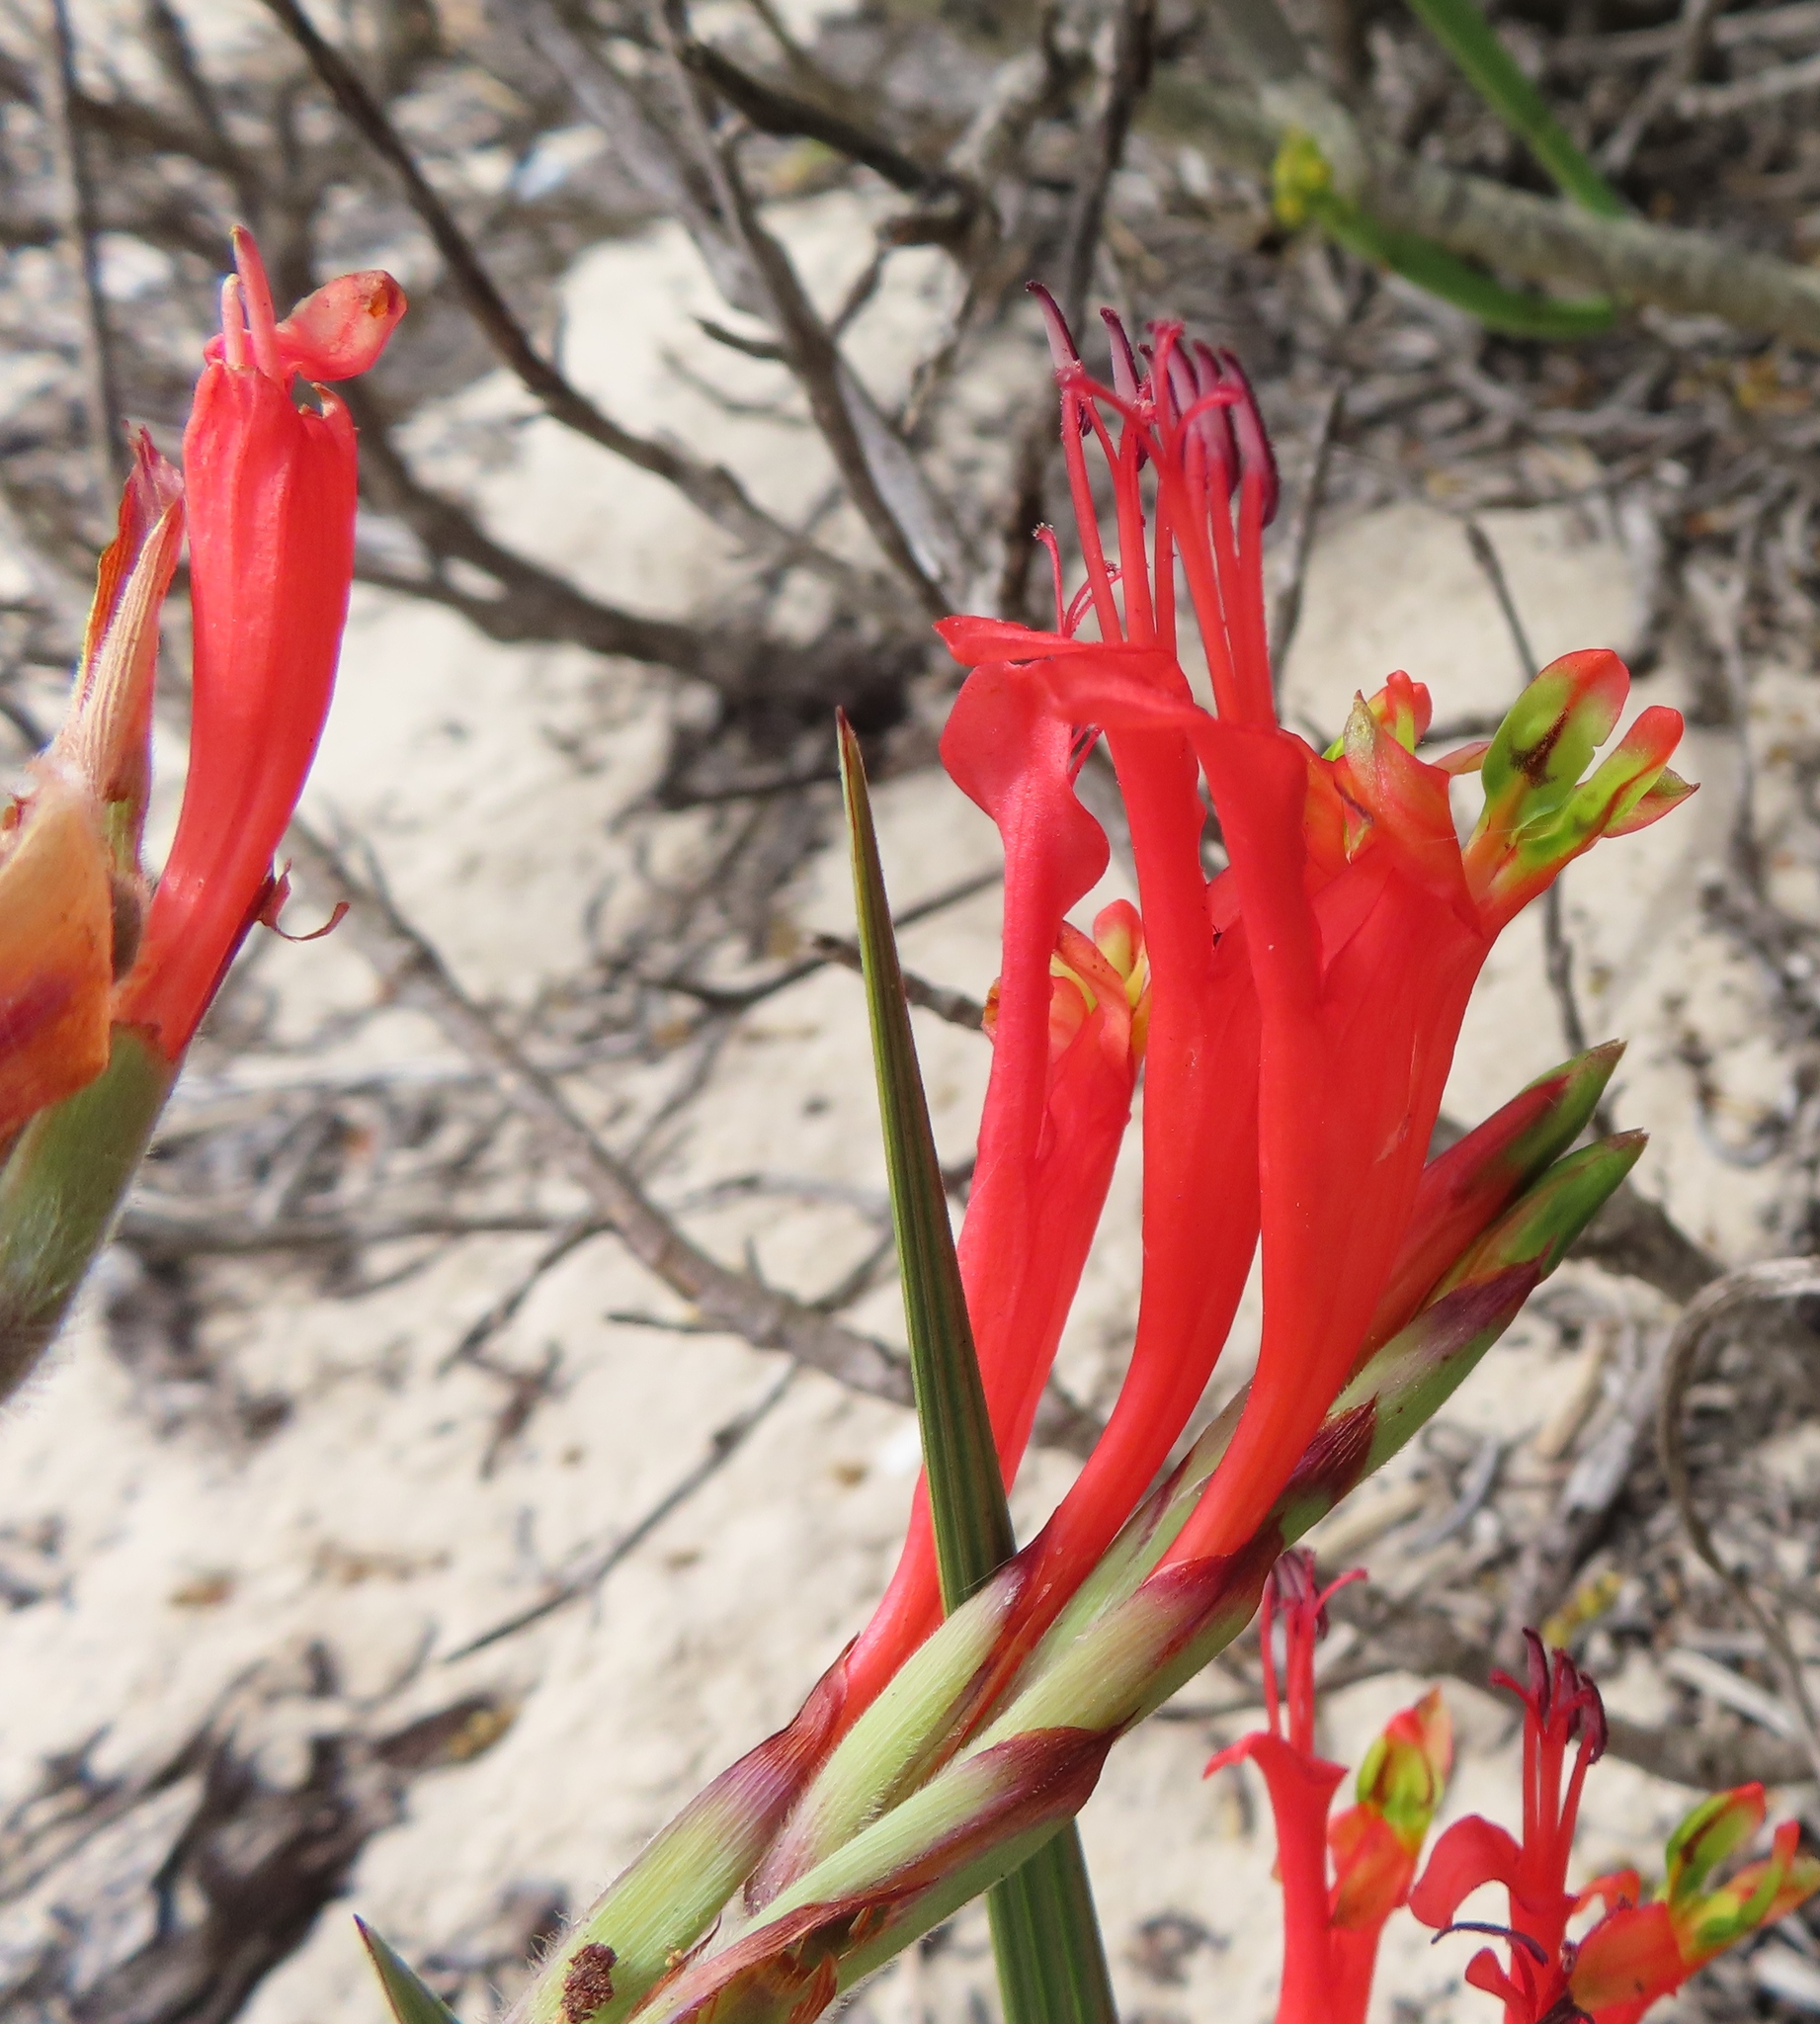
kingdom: Plantae
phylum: Tracheophyta
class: Liliopsida
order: Asparagales
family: Iridaceae
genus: Babiana
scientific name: Babiana hirsuta
